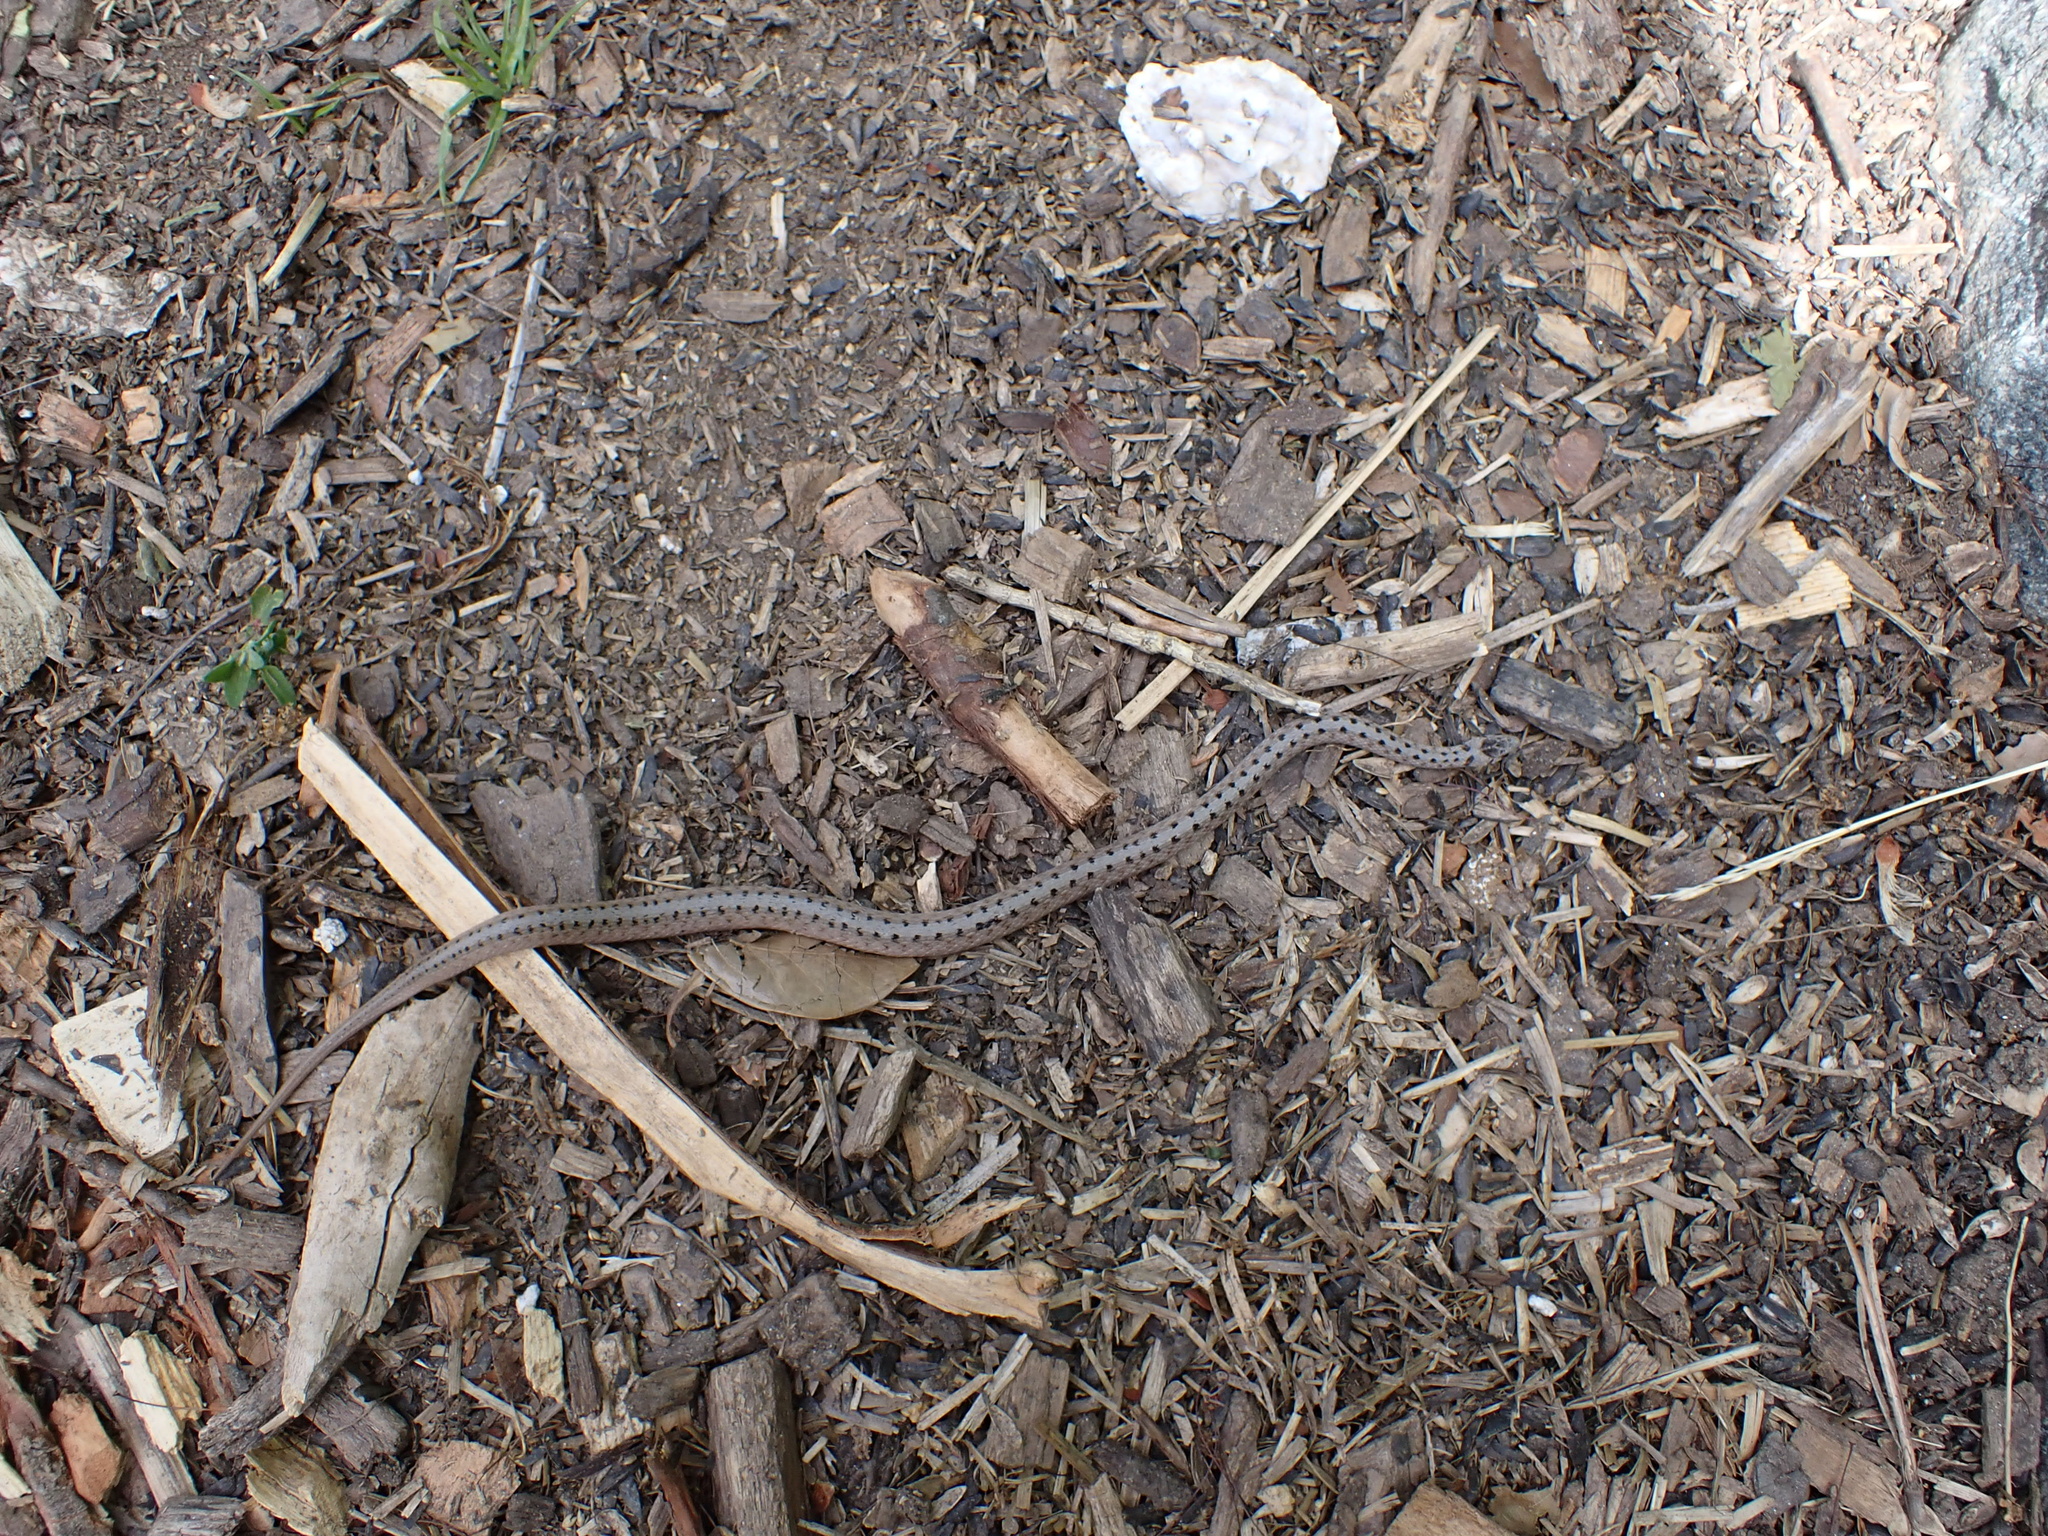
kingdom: Animalia
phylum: Chordata
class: Squamata
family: Colubridae
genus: Storeria
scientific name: Storeria dekayi
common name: (dekay’s) brown snake
